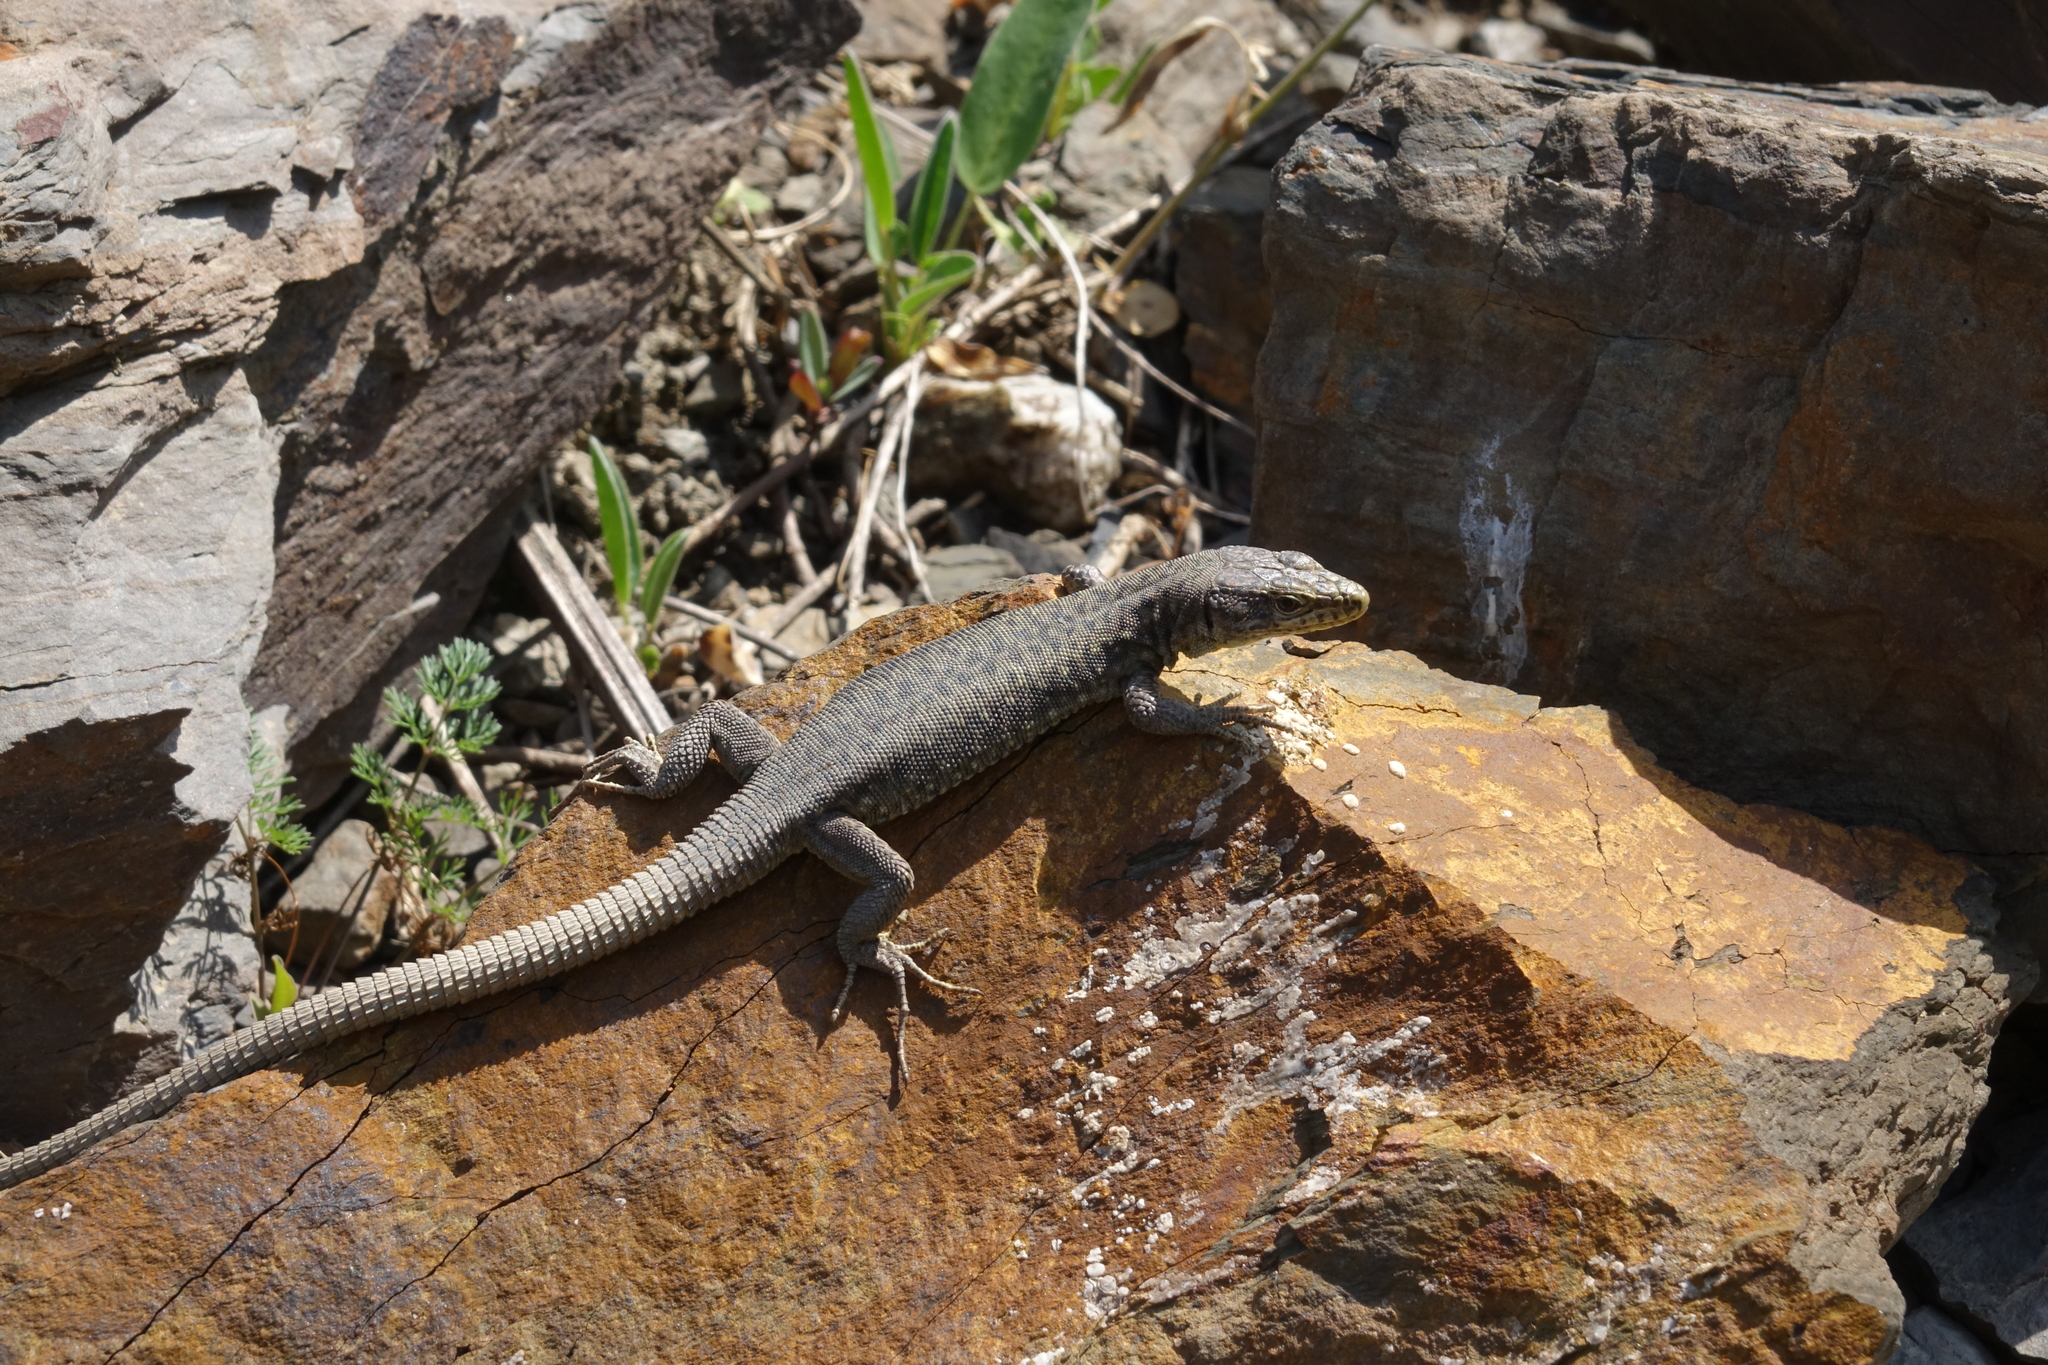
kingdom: Animalia
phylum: Chordata
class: Squamata
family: Lacertidae
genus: Darevskia
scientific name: Darevskia rudis
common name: Spiny-tailed lizard
